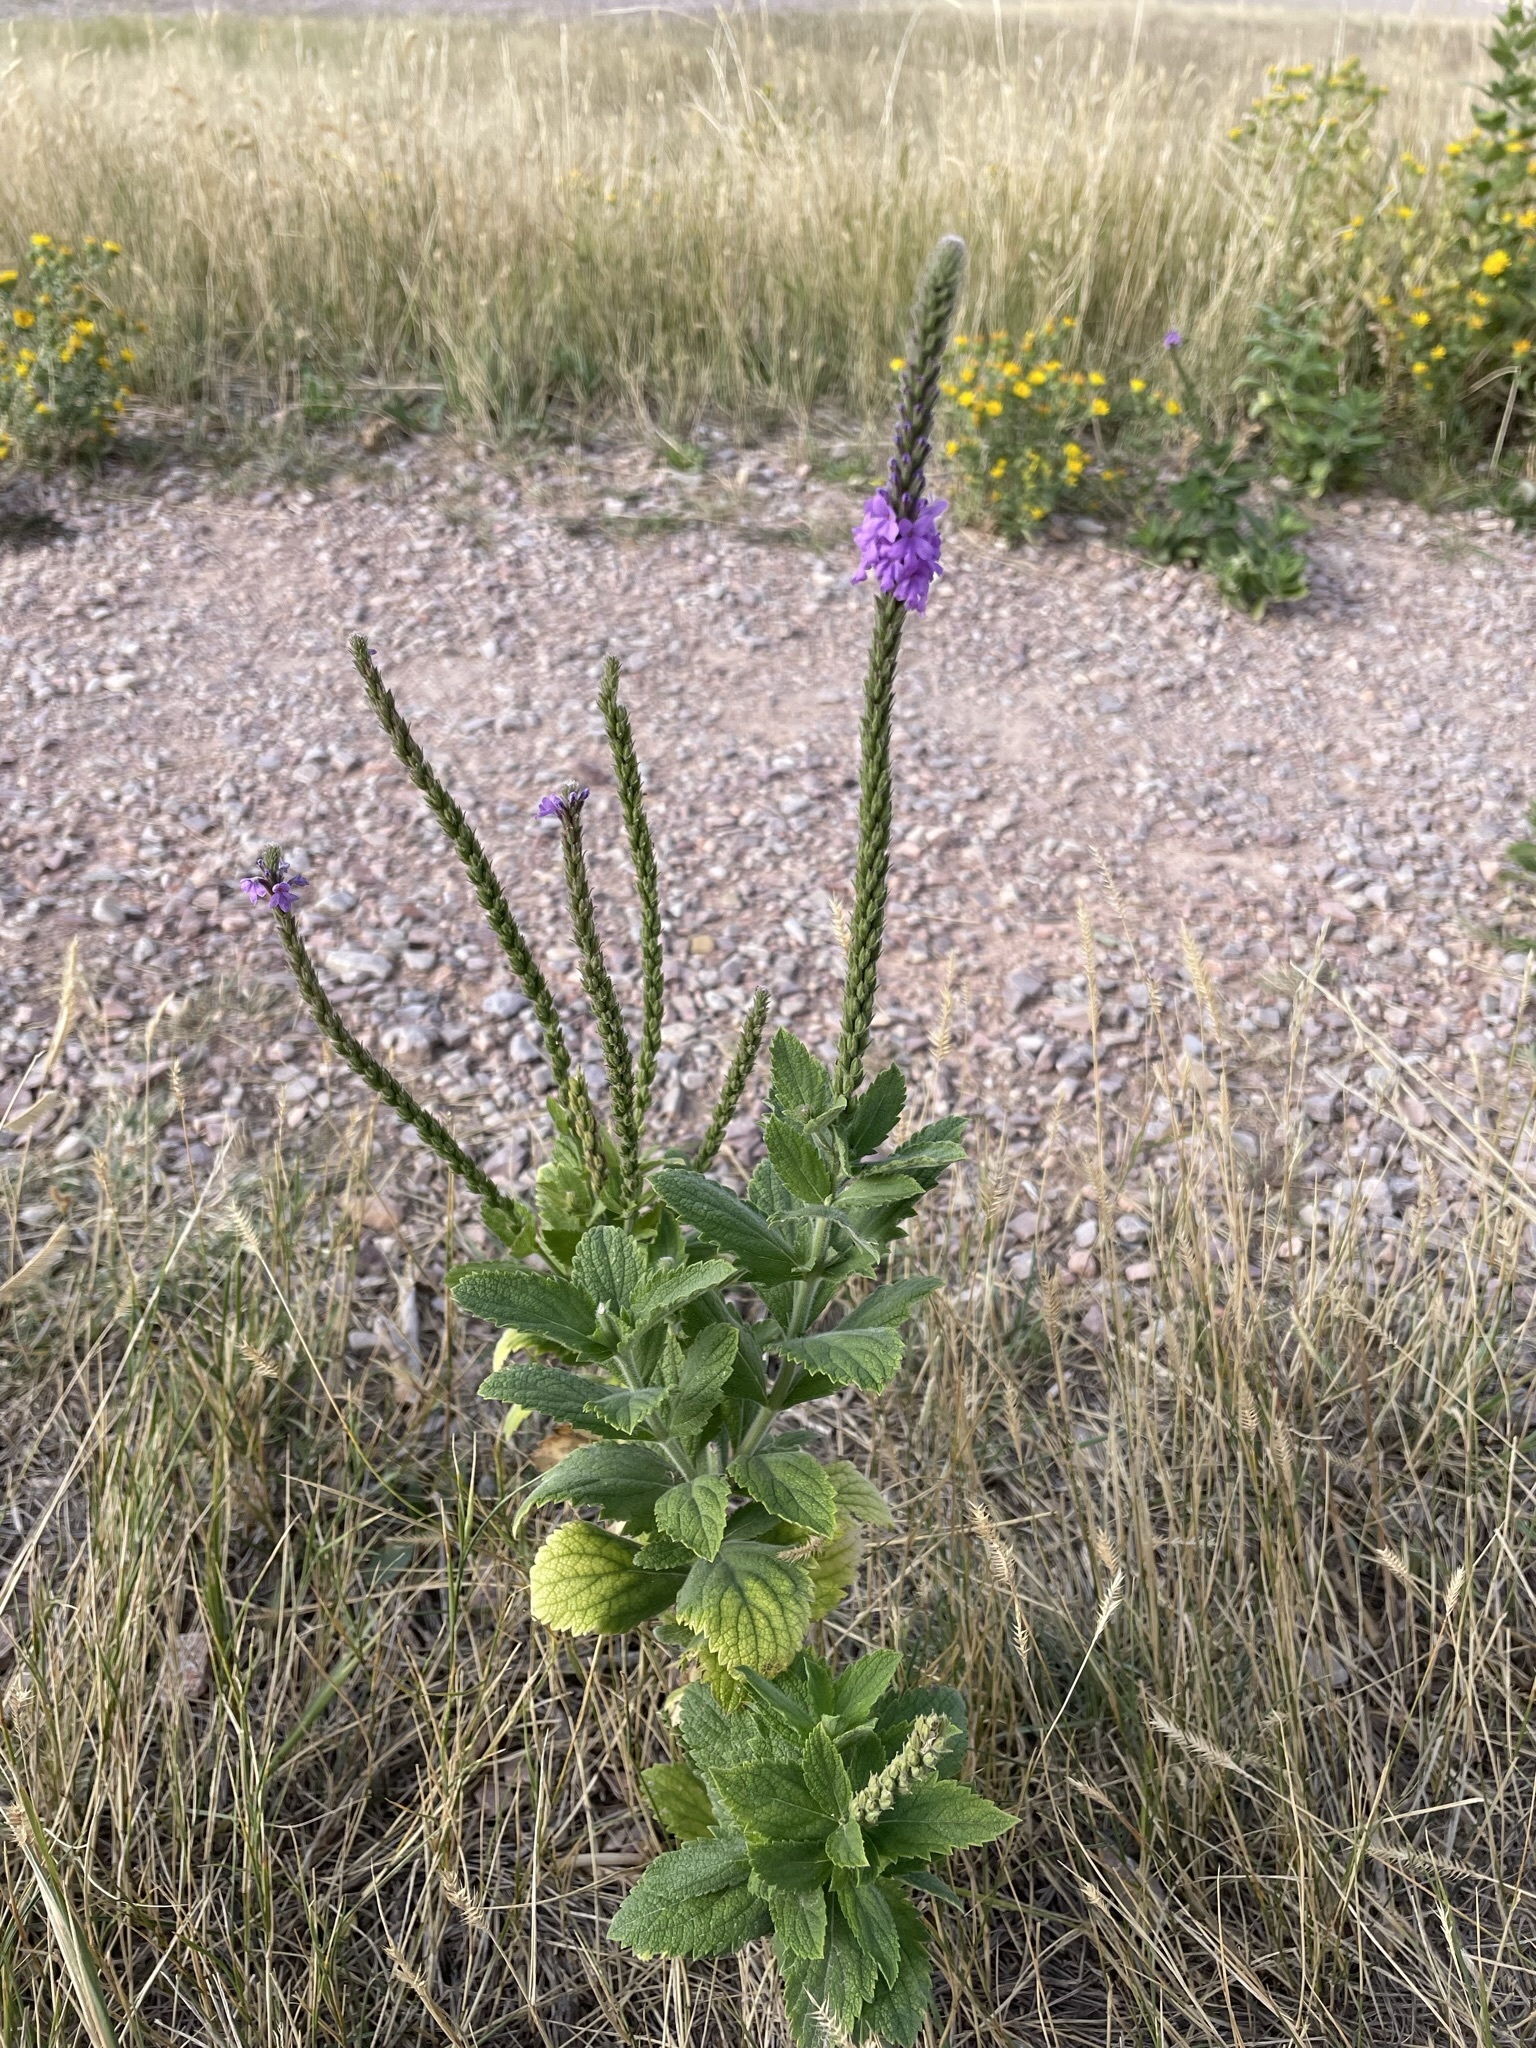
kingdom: Plantae
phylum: Tracheophyta
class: Magnoliopsida
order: Lamiales
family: Verbenaceae
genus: Verbena
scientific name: Verbena stricta
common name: Hoary vervain
